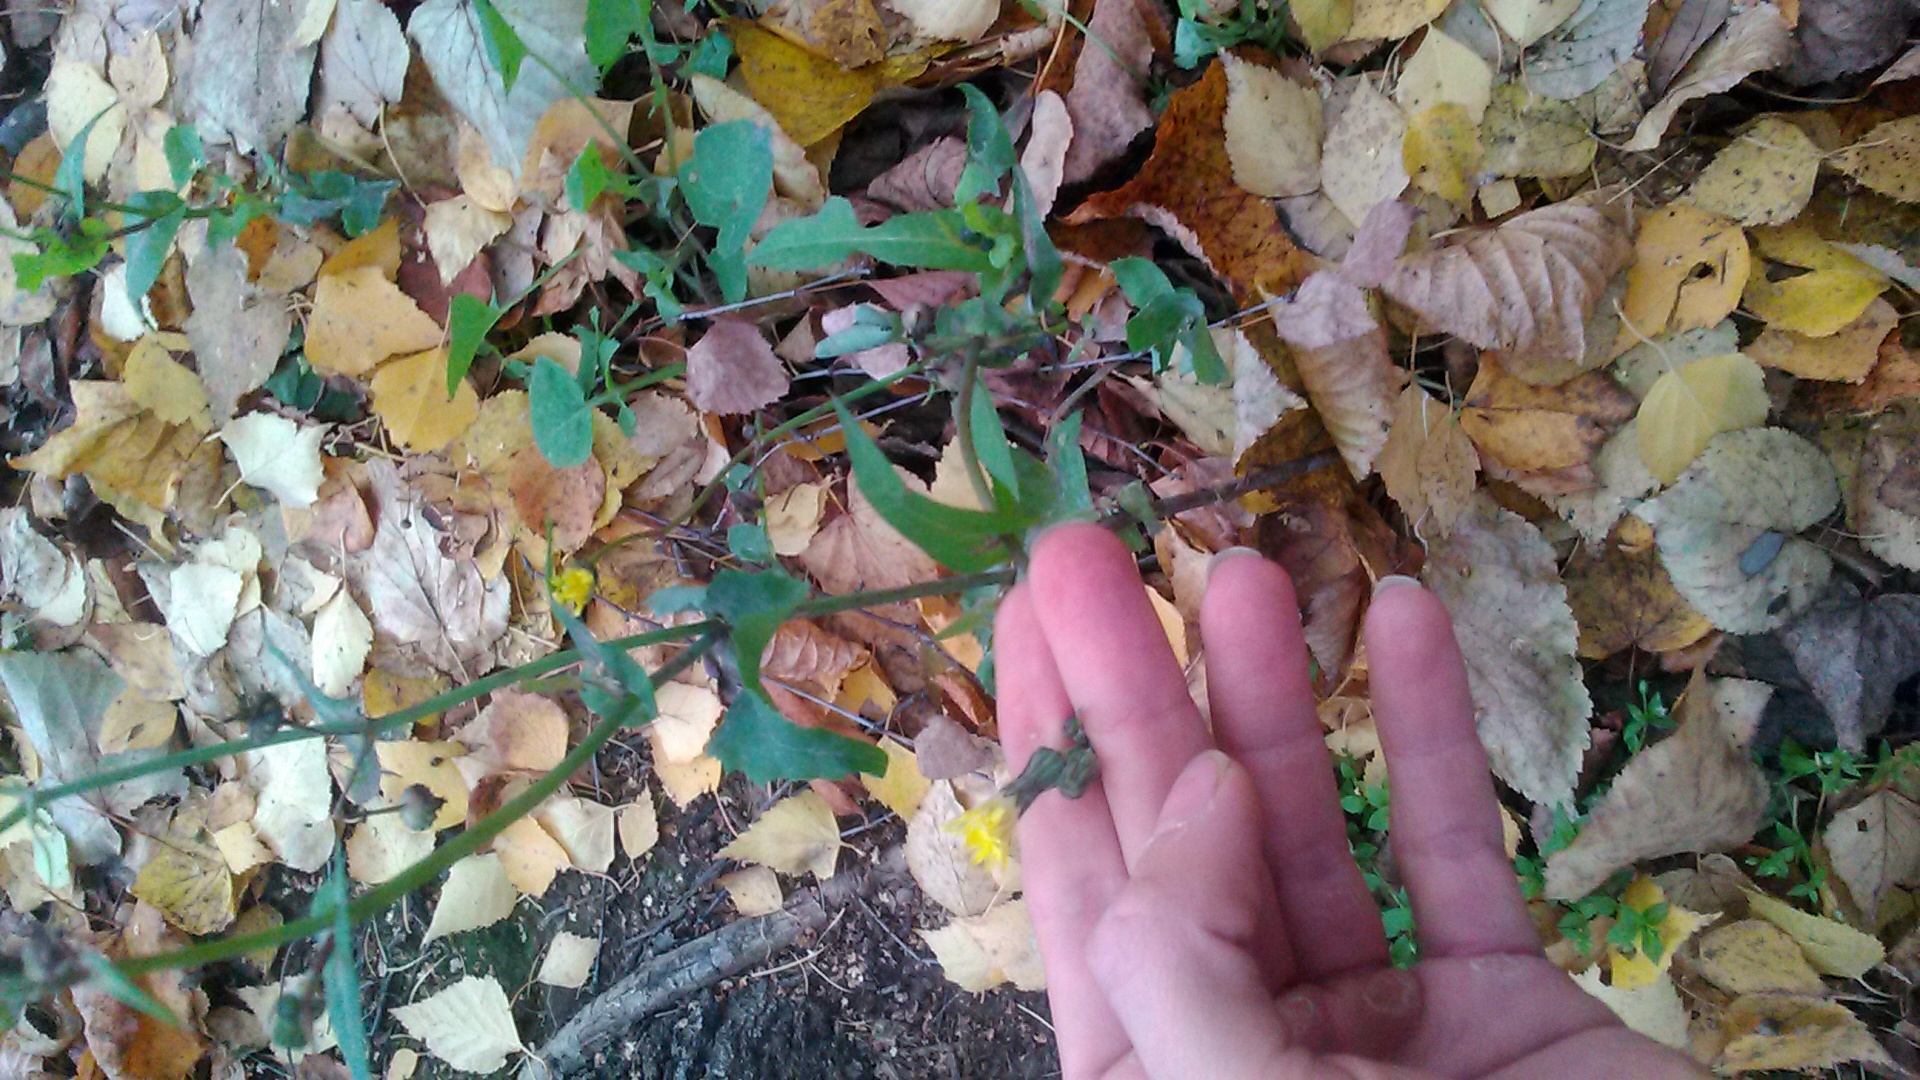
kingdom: Plantae
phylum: Tracheophyta
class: Magnoliopsida
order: Asterales
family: Asteraceae
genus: Sonchus
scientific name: Sonchus oleraceus
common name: Common sowthistle
